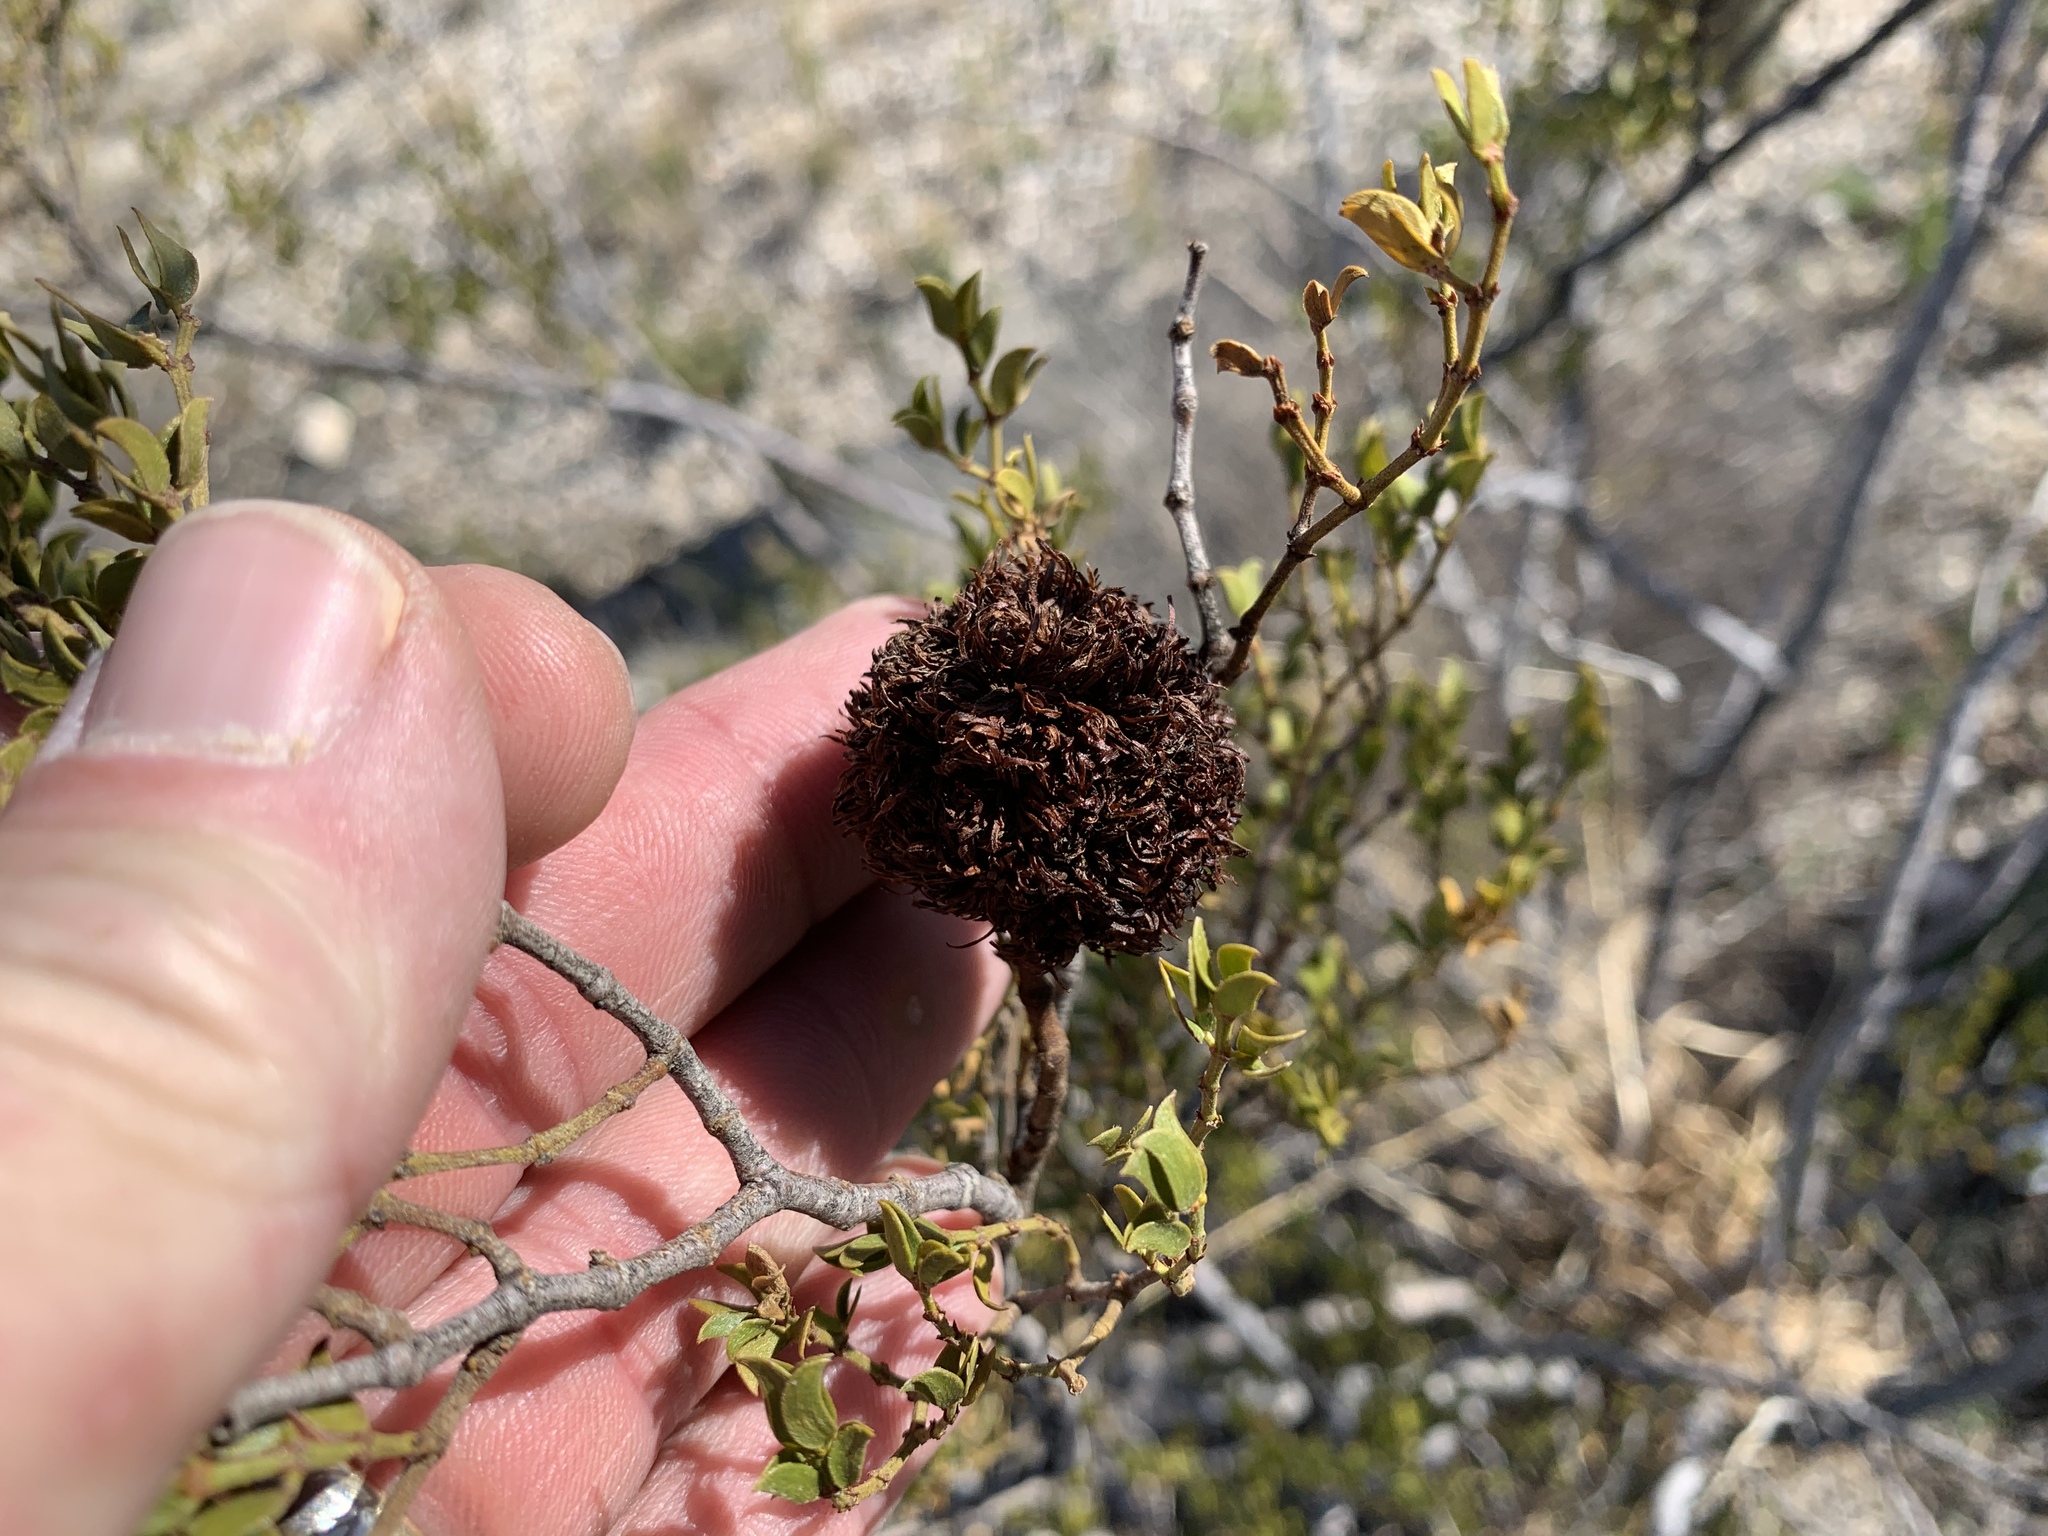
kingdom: Animalia
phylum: Arthropoda
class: Insecta
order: Diptera
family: Cecidomyiidae
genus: Asphondylia
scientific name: Asphondylia auripila
